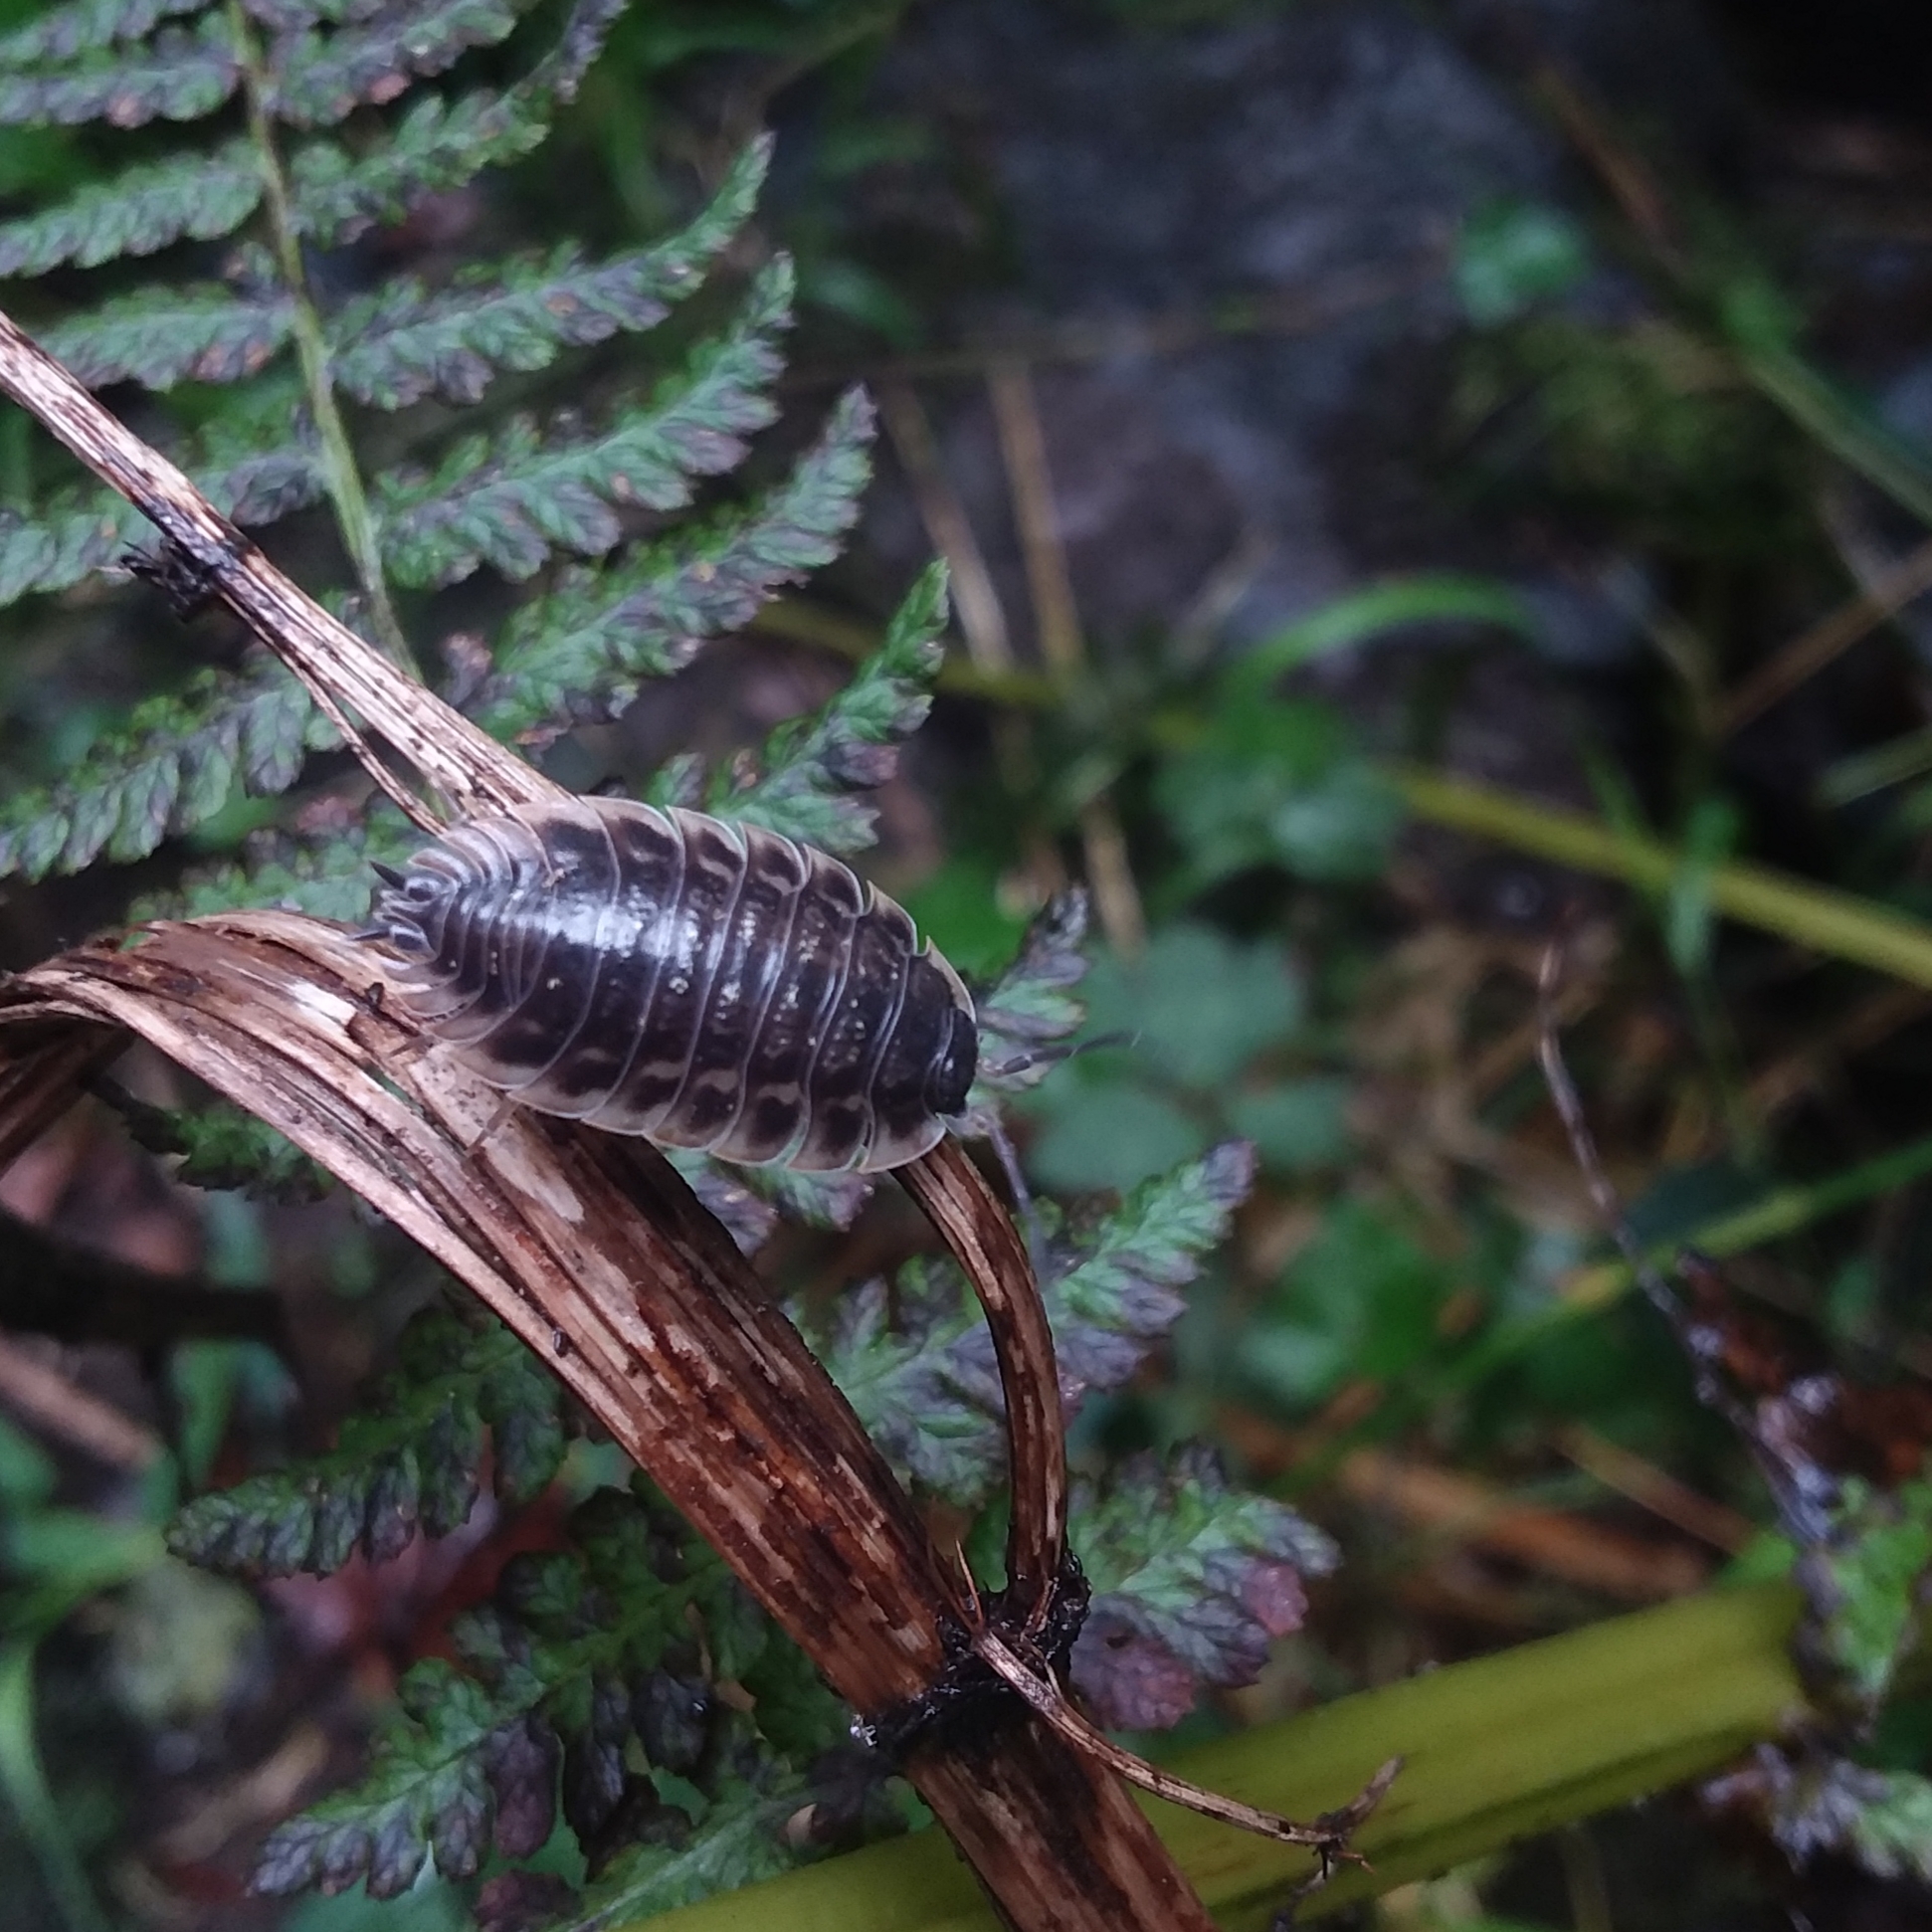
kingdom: Animalia
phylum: Arthropoda
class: Malacostraca
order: Isopoda
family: Oniscidae
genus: Oniscus
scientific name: Oniscus asellus
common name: Common shiny woodlouse
